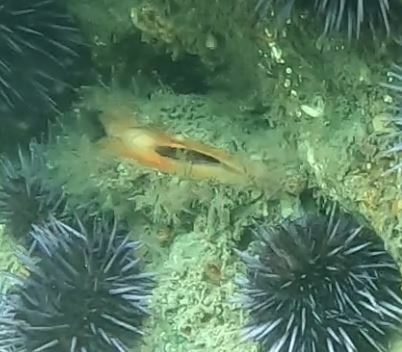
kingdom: Animalia
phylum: Mollusca
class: Bivalvia
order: Pectinida
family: Pectinidae
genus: Crassadoma
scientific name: Crassadoma gigantea
